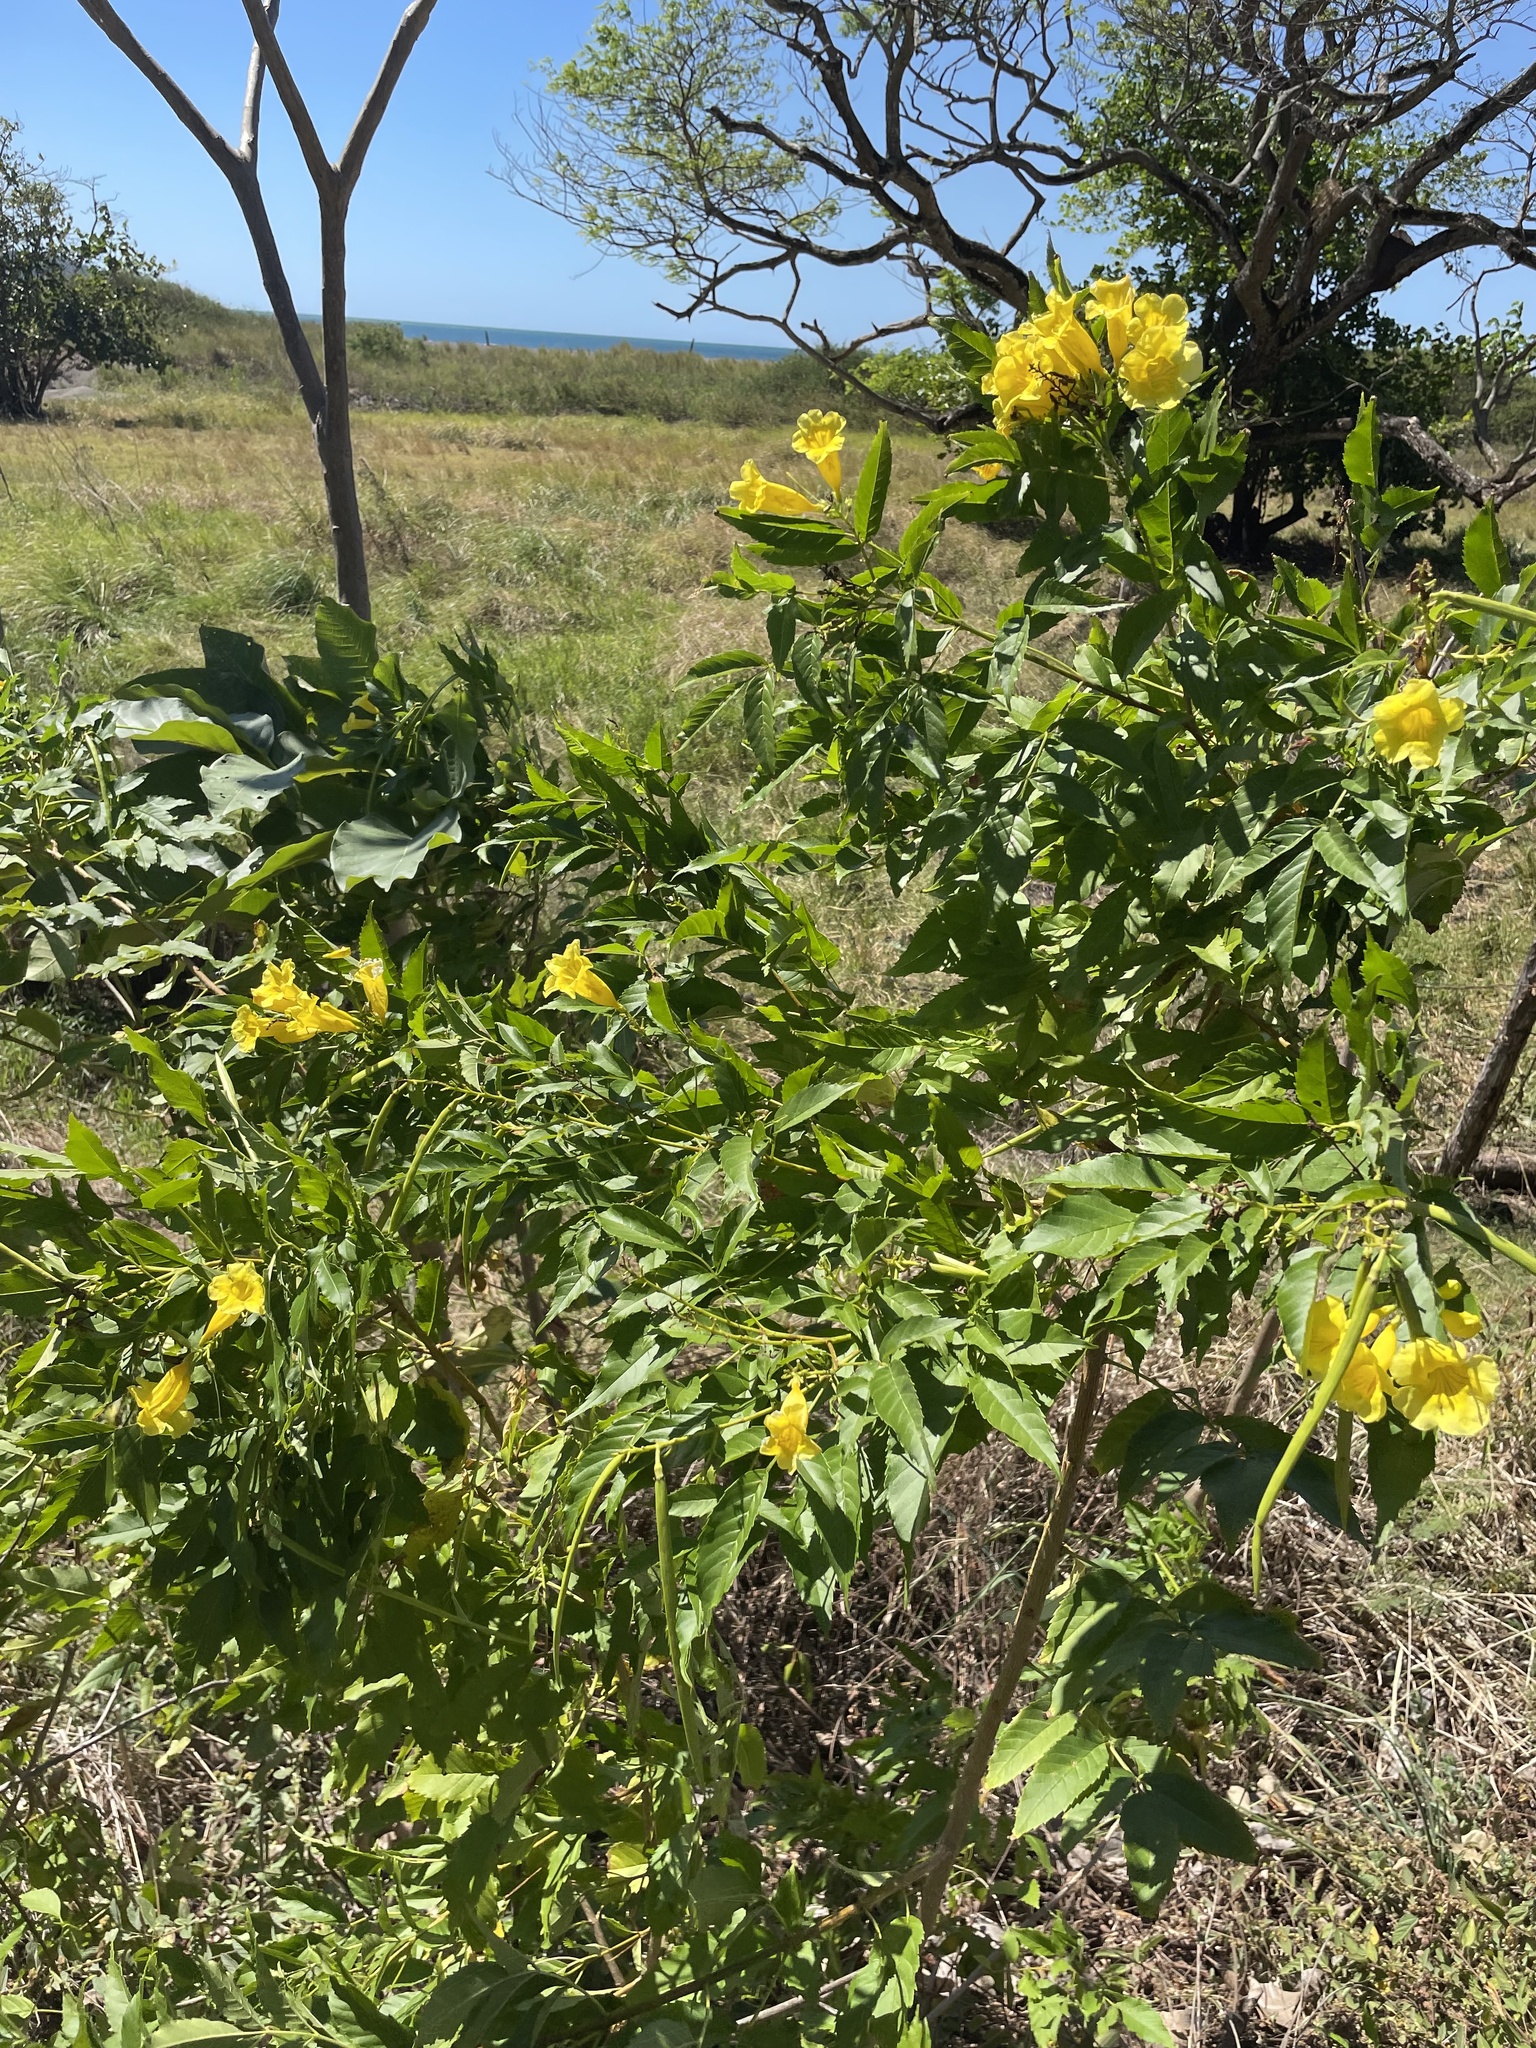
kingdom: Plantae
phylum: Tracheophyta
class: Magnoliopsida
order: Lamiales
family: Bignoniaceae
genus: Tecoma
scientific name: Tecoma stans
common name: Yellow trumpetbush
